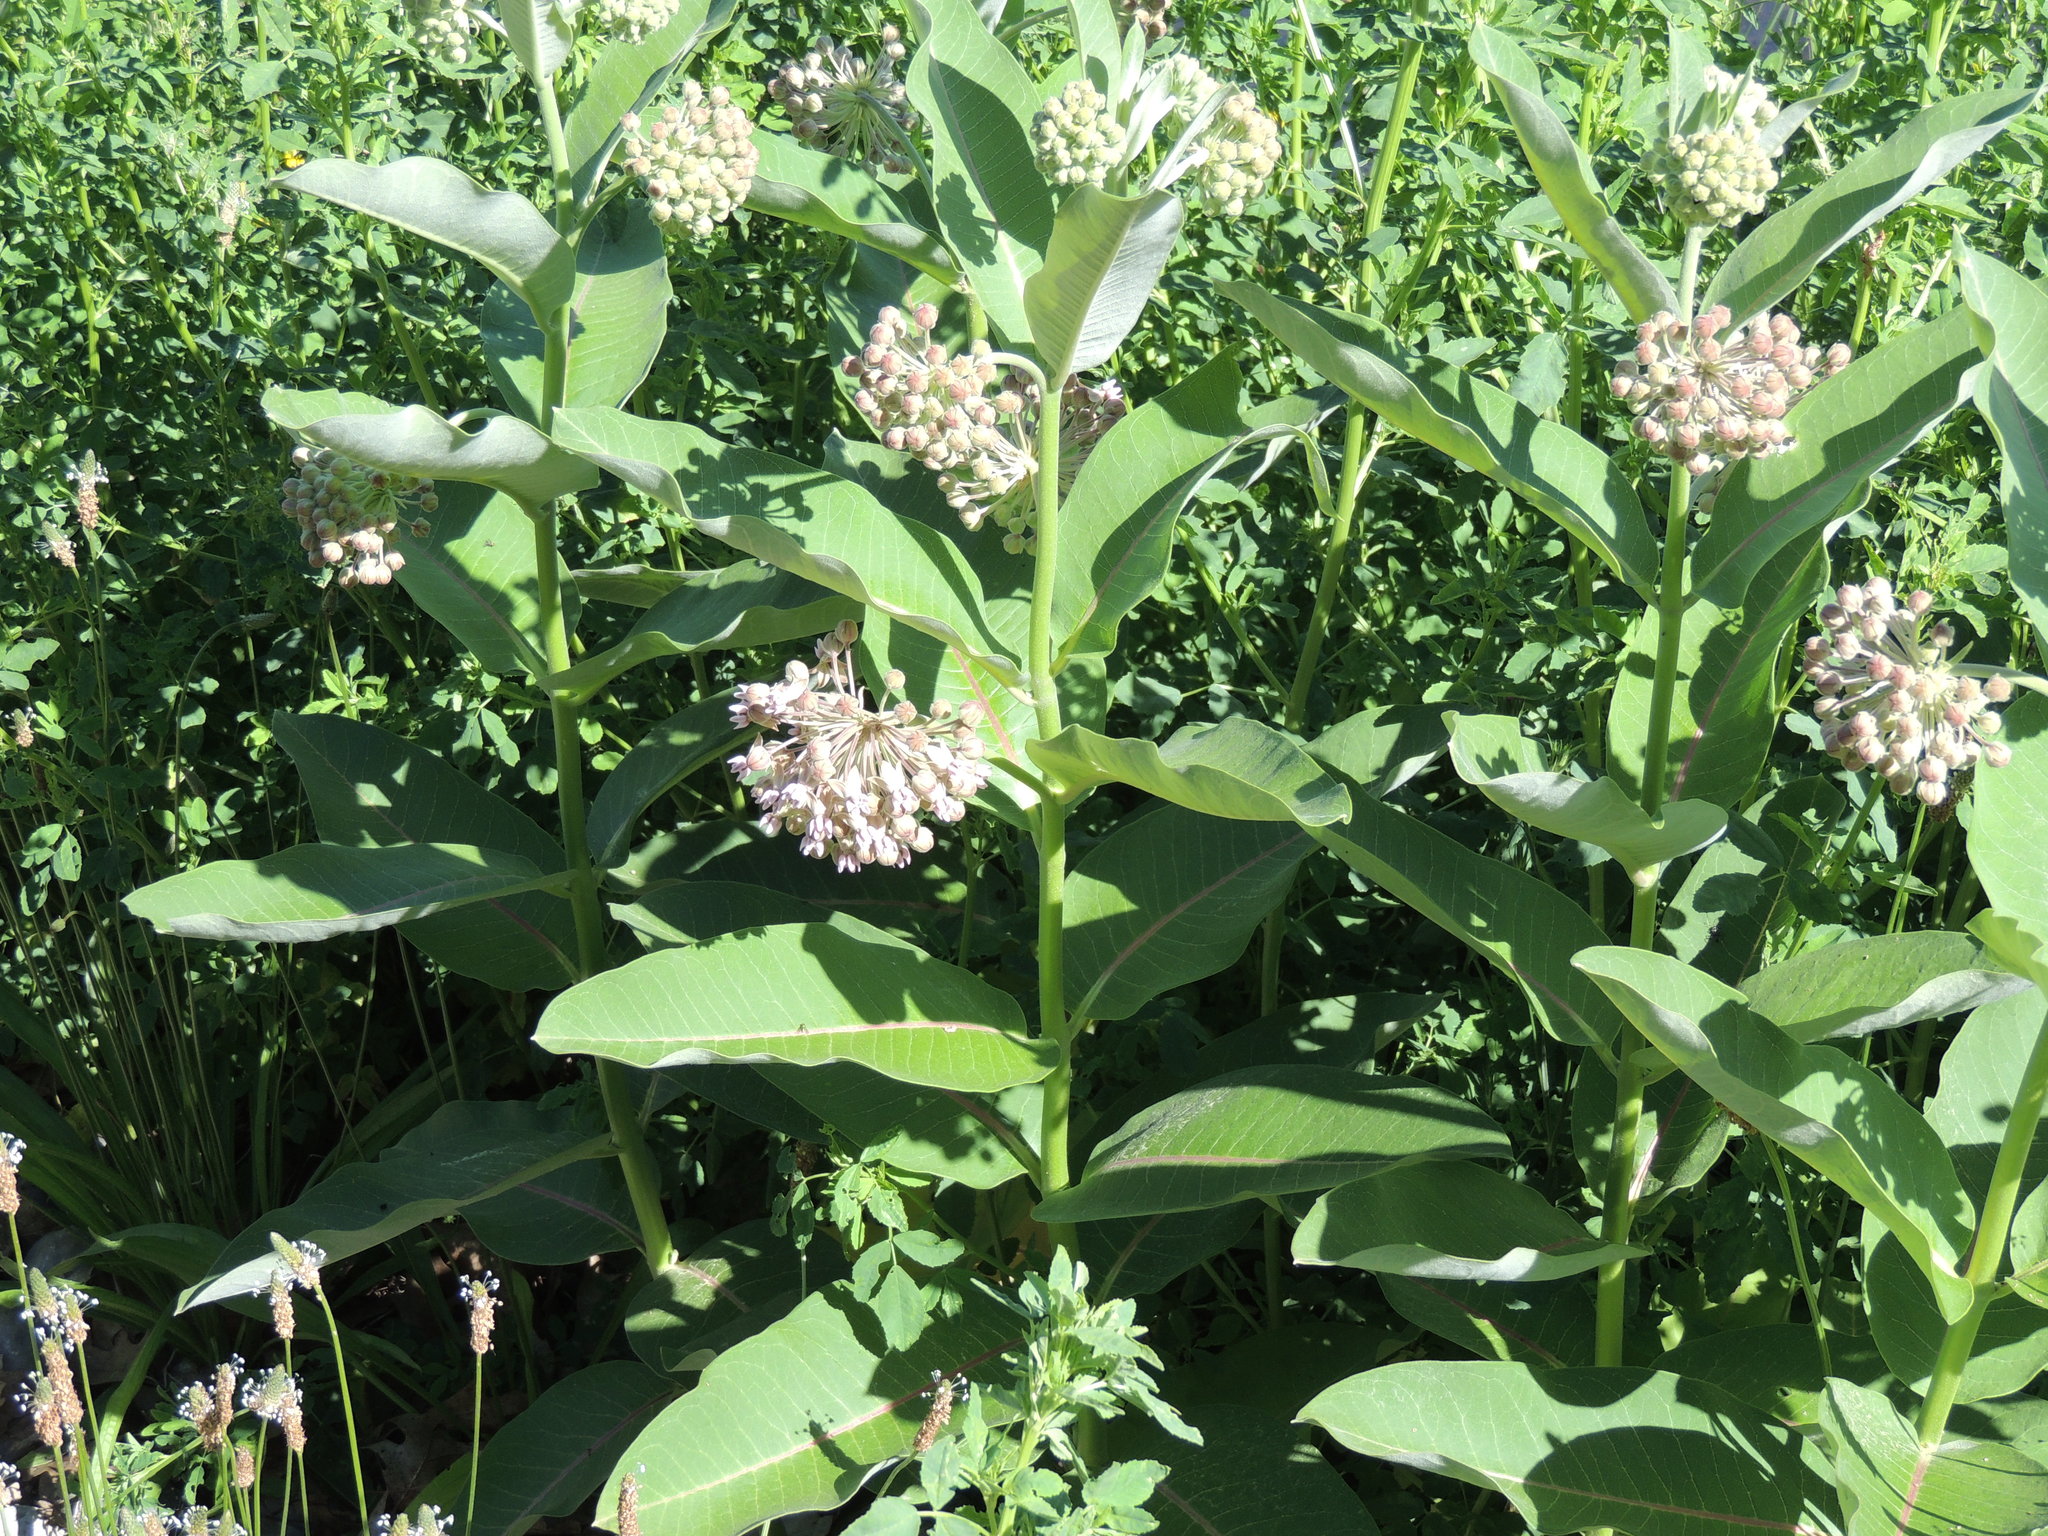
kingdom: Plantae
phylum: Tracheophyta
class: Magnoliopsida
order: Gentianales
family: Apocynaceae
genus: Asclepias
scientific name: Asclepias syriaca
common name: Common milkweed
